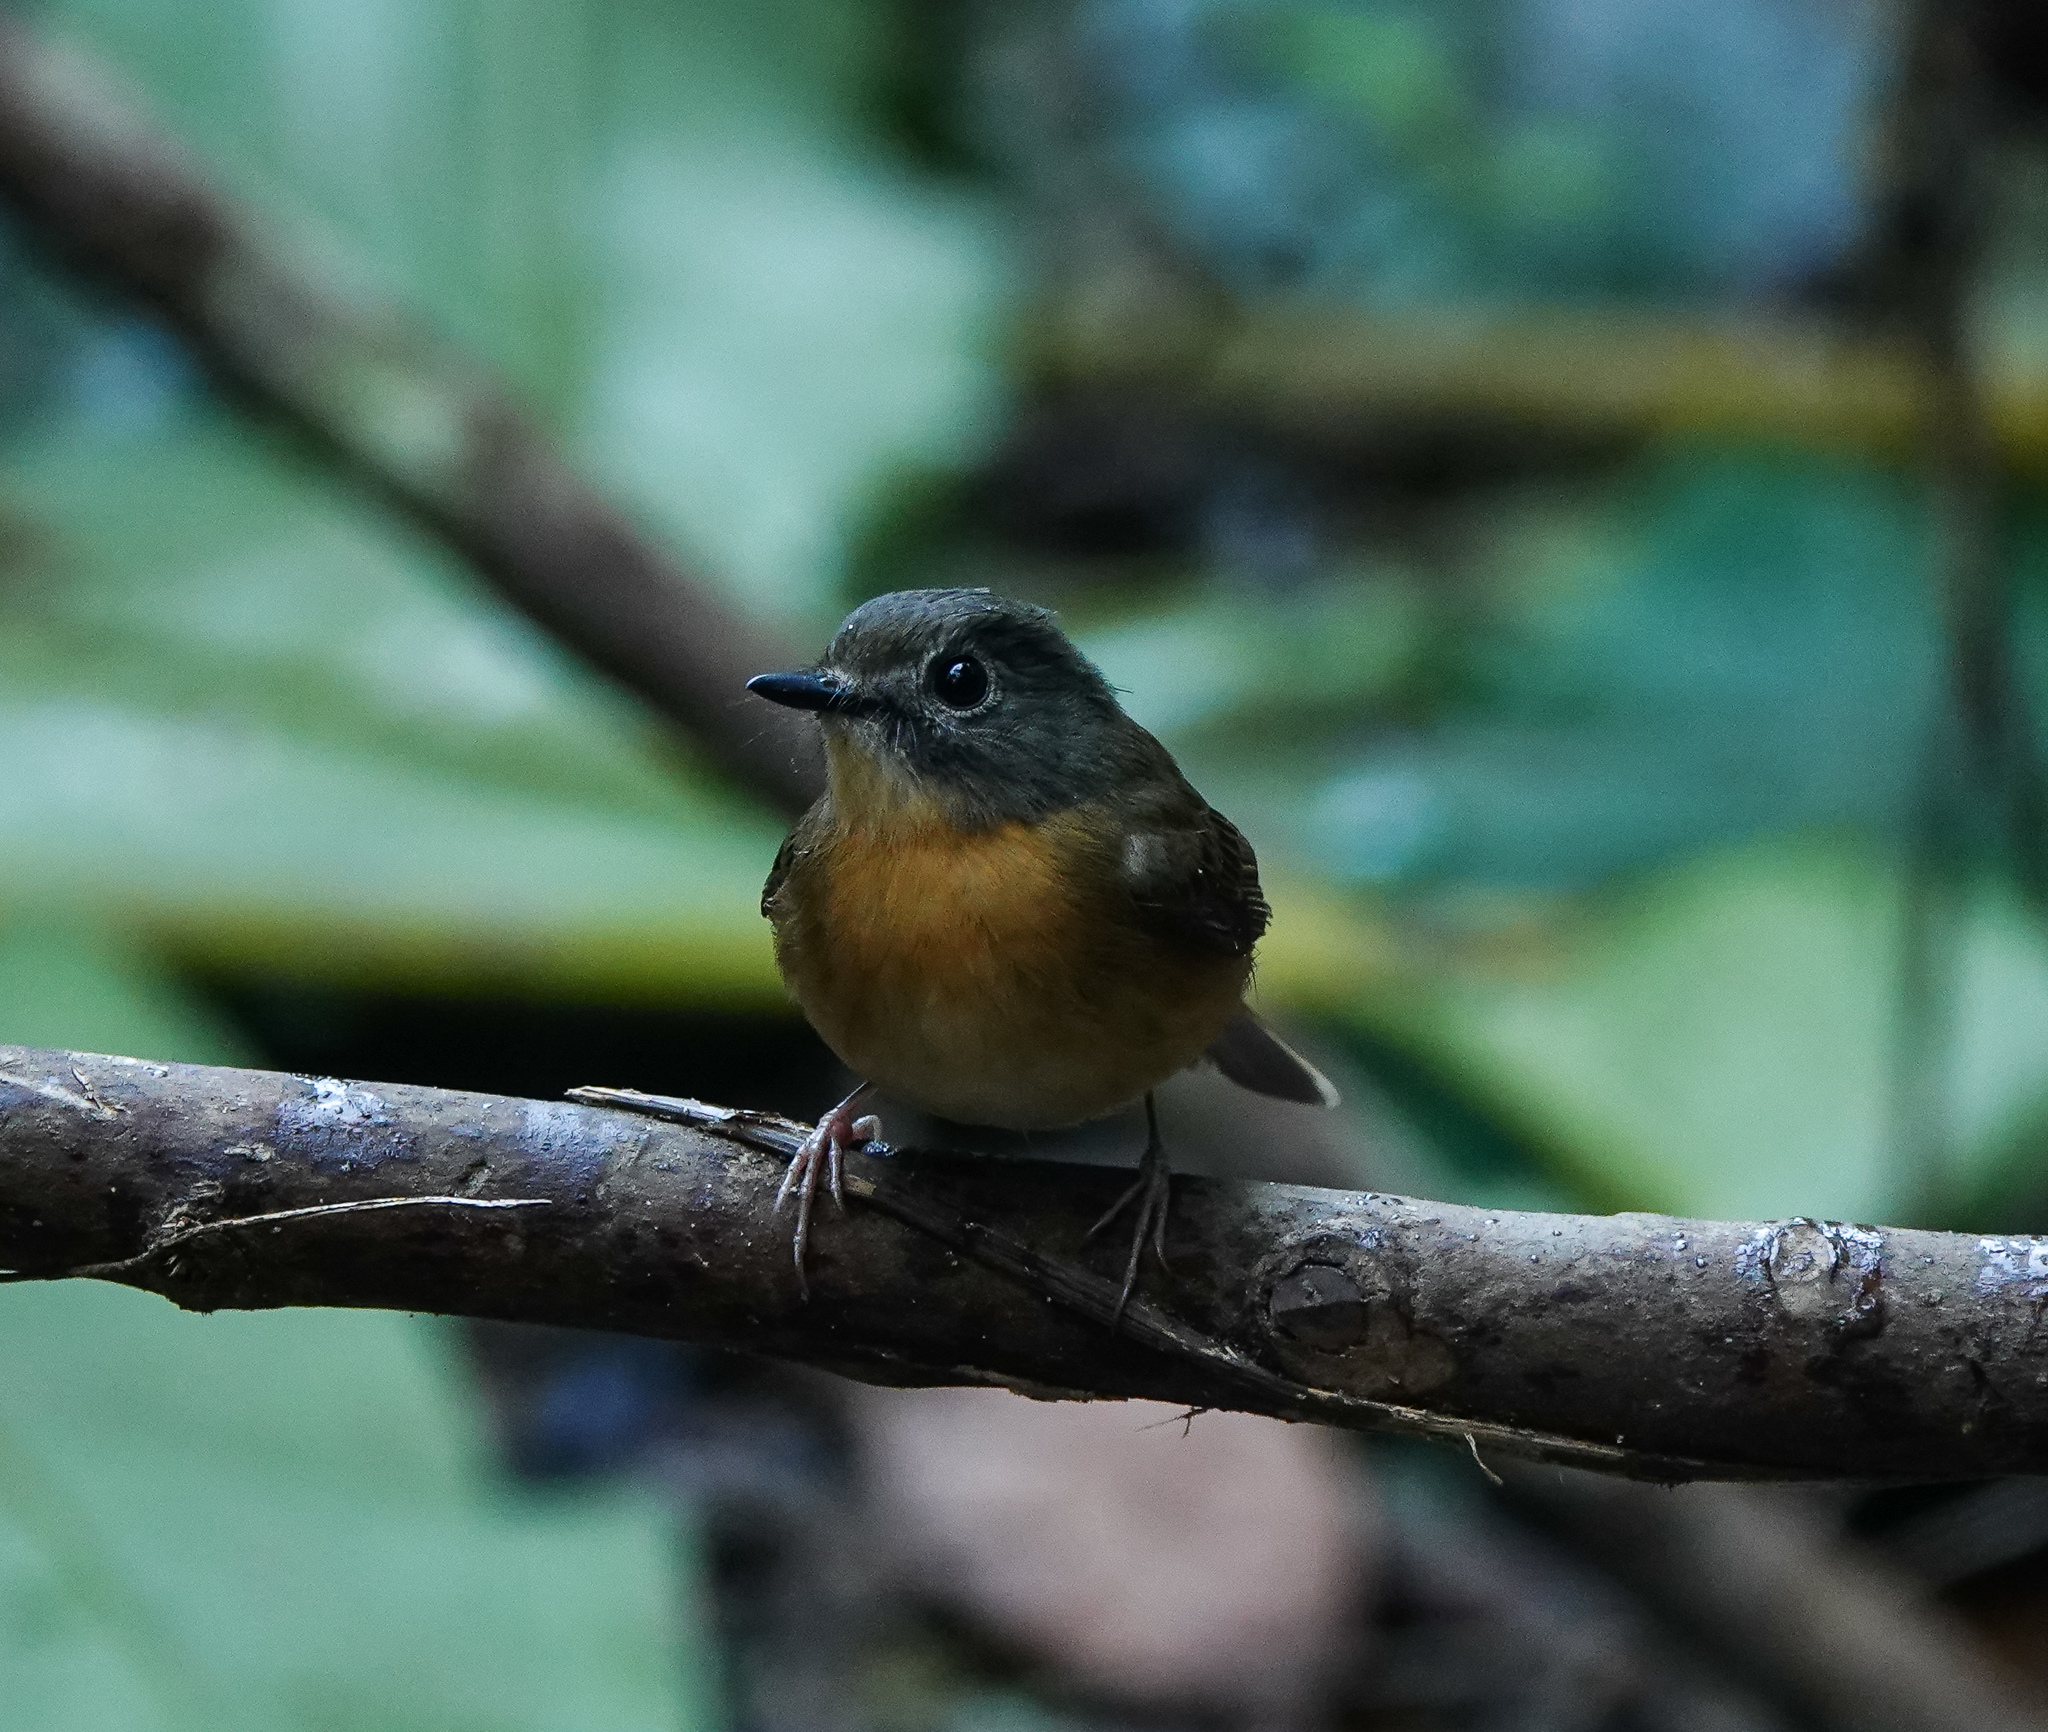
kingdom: Animalia
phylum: Chordata
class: Aves
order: Passeriformes
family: Muscicapidae
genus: Cyornis
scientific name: Cyornis poliogenys
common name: Pale-chinned blue flycatcher
